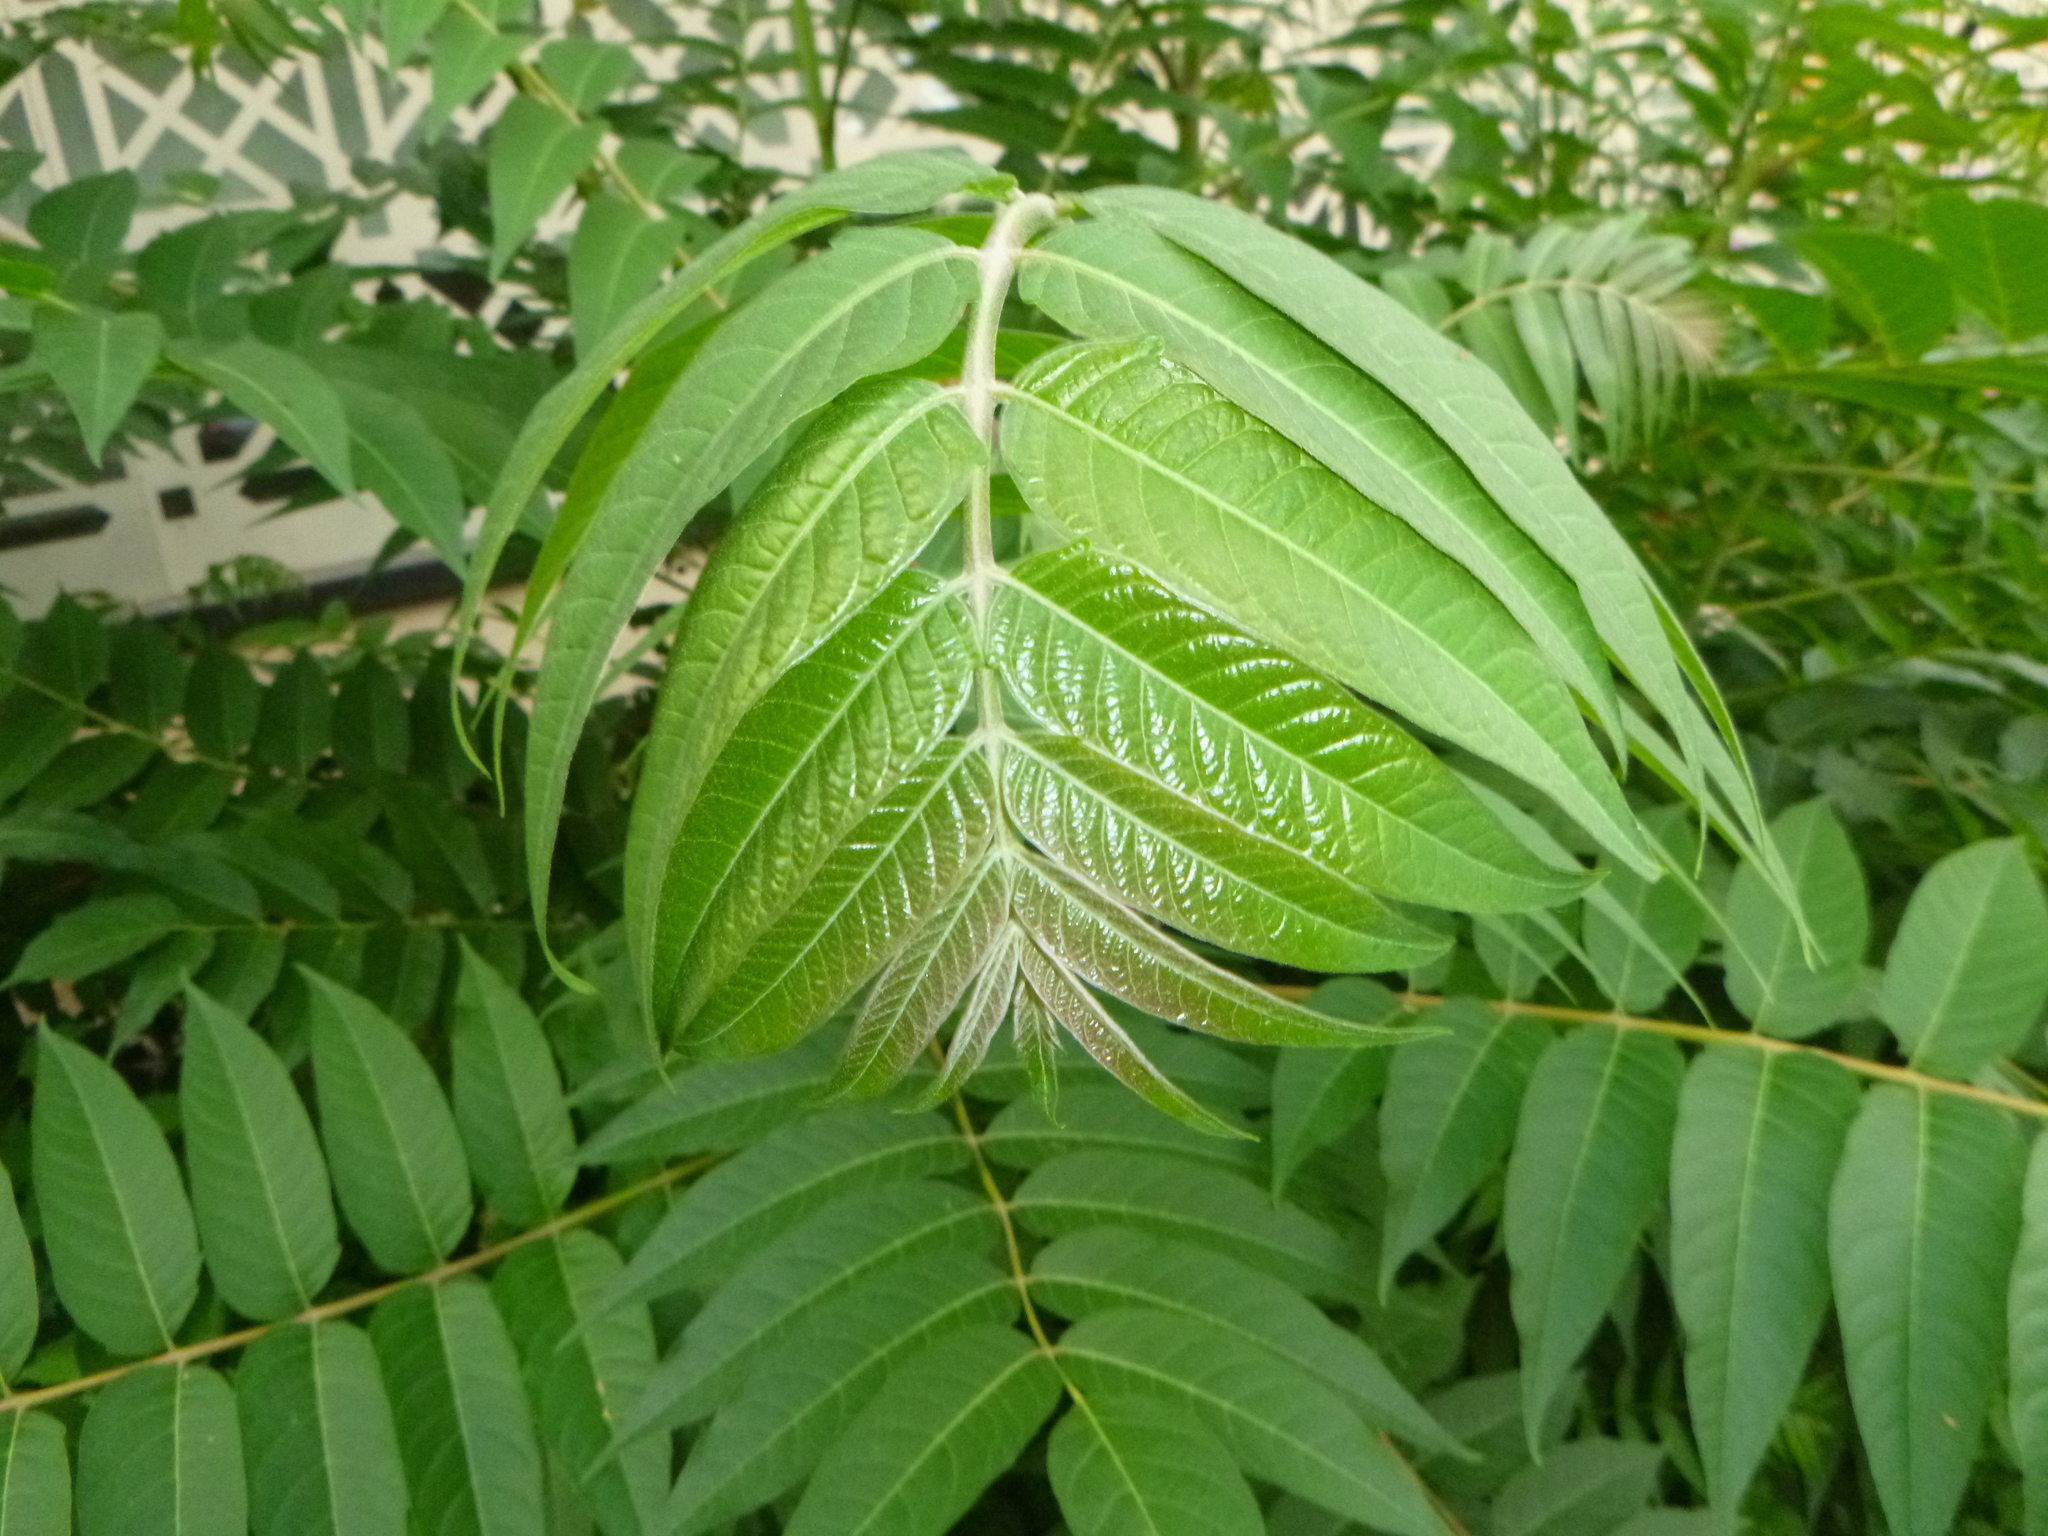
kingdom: Plantae
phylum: Tracheophyta
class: Magnoliopsida
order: Sapindales
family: Simaroubaceae
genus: Ailanthus
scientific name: Ailanthus altissima
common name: Tree-of-heaven
